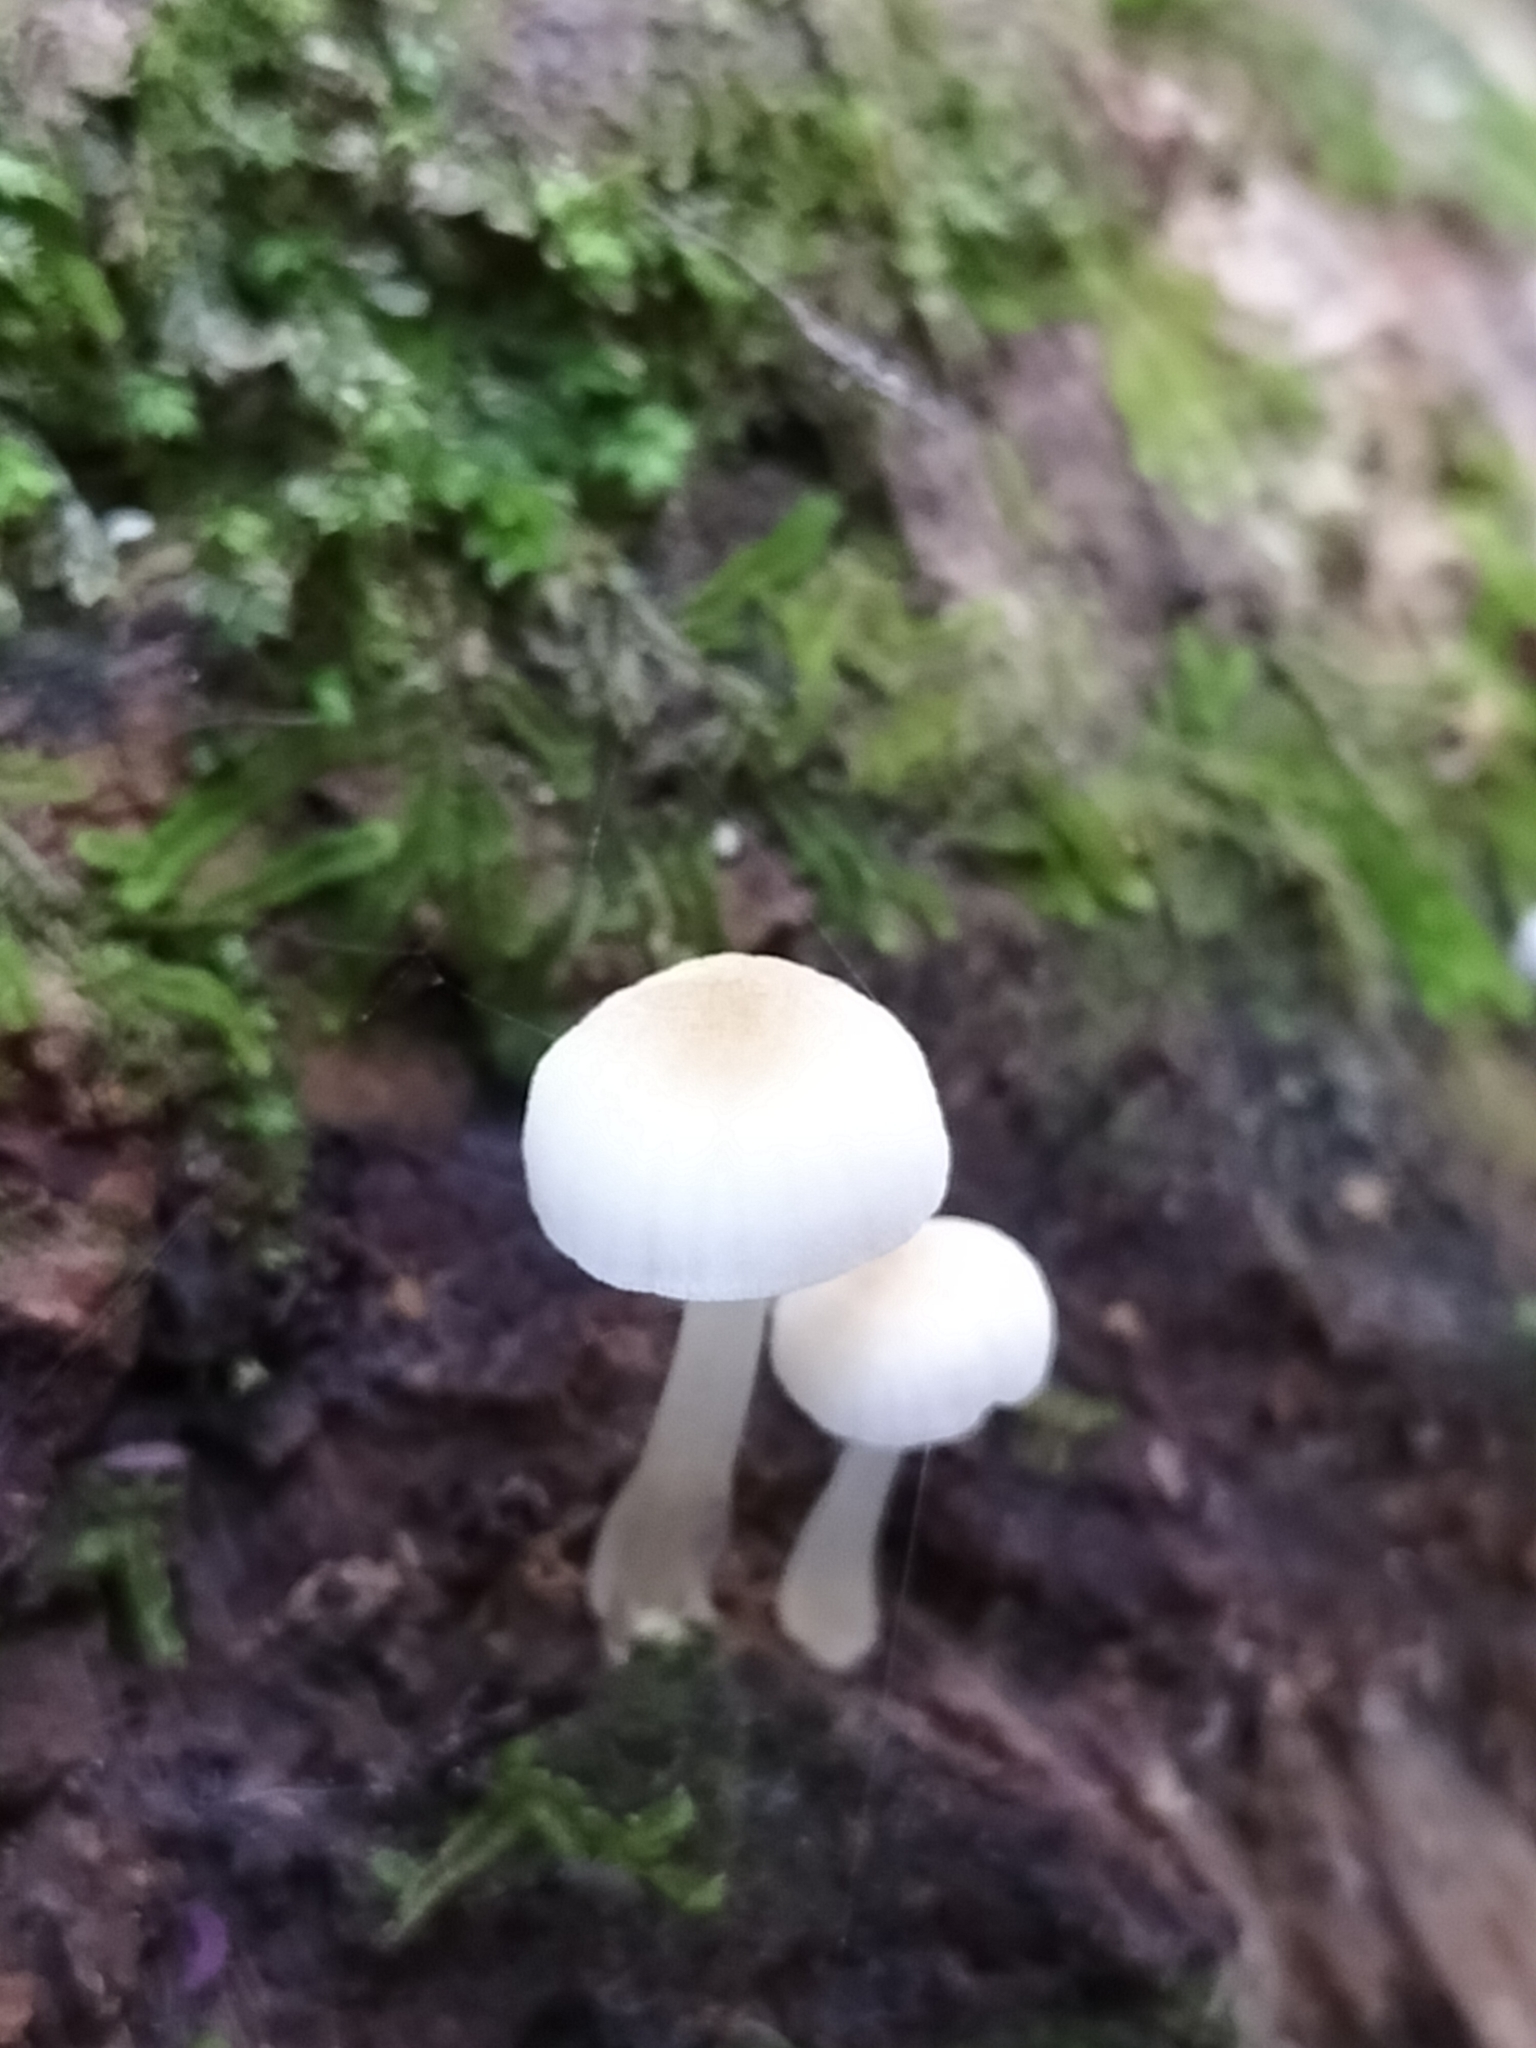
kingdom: Fungi
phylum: Basidiomycota
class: Agaricomycetes
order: Agaricales
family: Mycenaceae
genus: Roridomyces
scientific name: Roridomyces austrororidus
